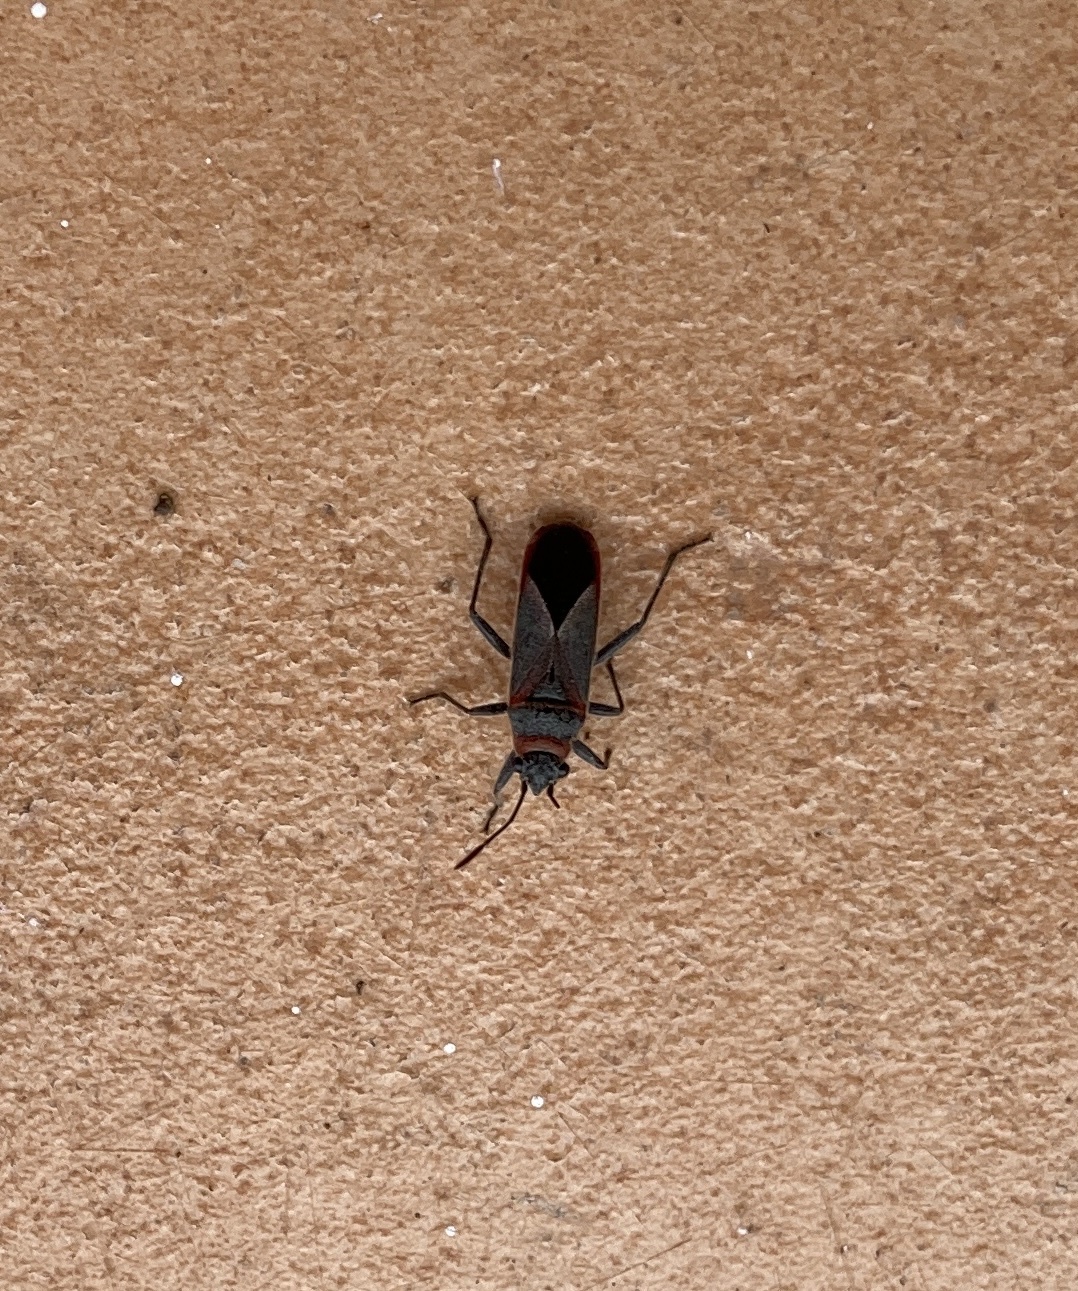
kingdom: Animalia
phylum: Arthropoda
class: Insecta
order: Hemiptera
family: Lygaeidae
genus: Arocatus
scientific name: Arocatus rusticus
